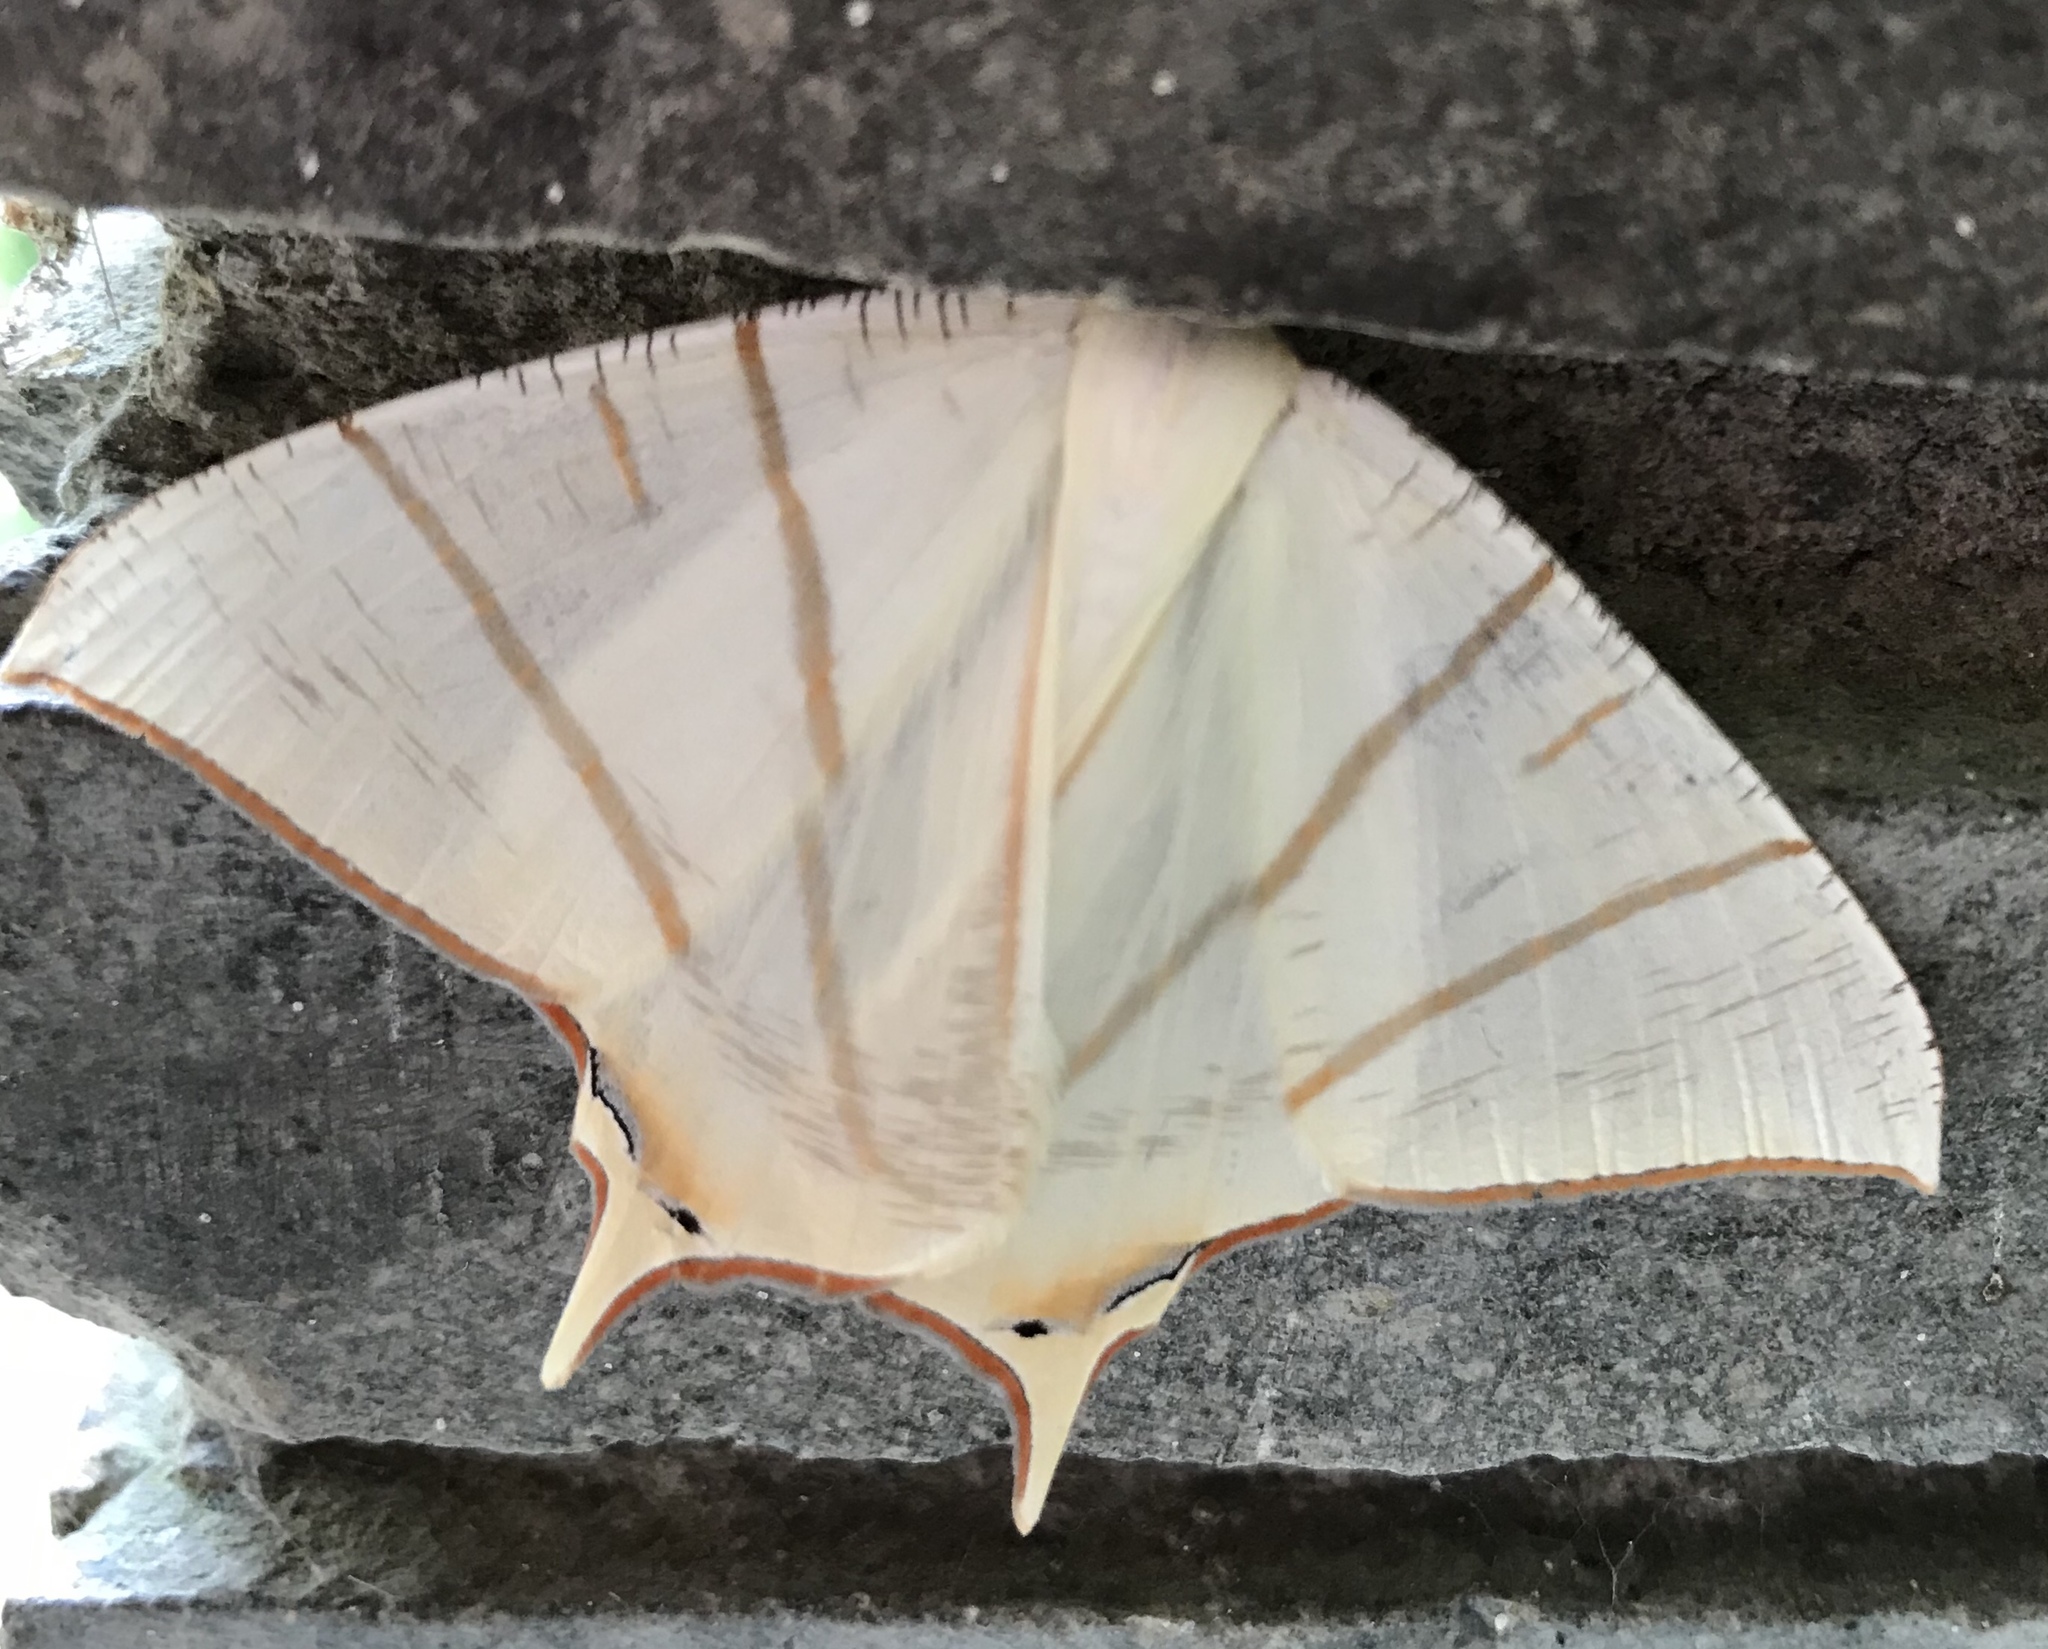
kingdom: Animalia
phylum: Arthropoda
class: Insecta
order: Lepidoptera
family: Geometridae
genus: Ourapteryx
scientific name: Ourapteryx claretta
